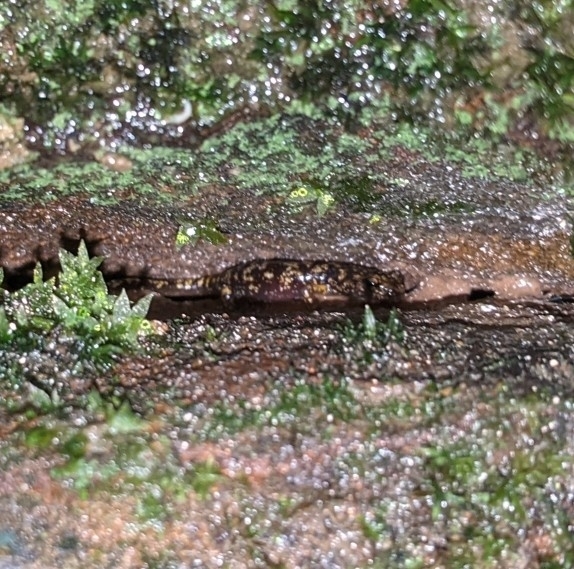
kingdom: Animalia
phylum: Chordata
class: Amphibia
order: Caudata
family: Plethodontidae
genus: Aneides
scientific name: Aneides aeneus
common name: Green salamander
